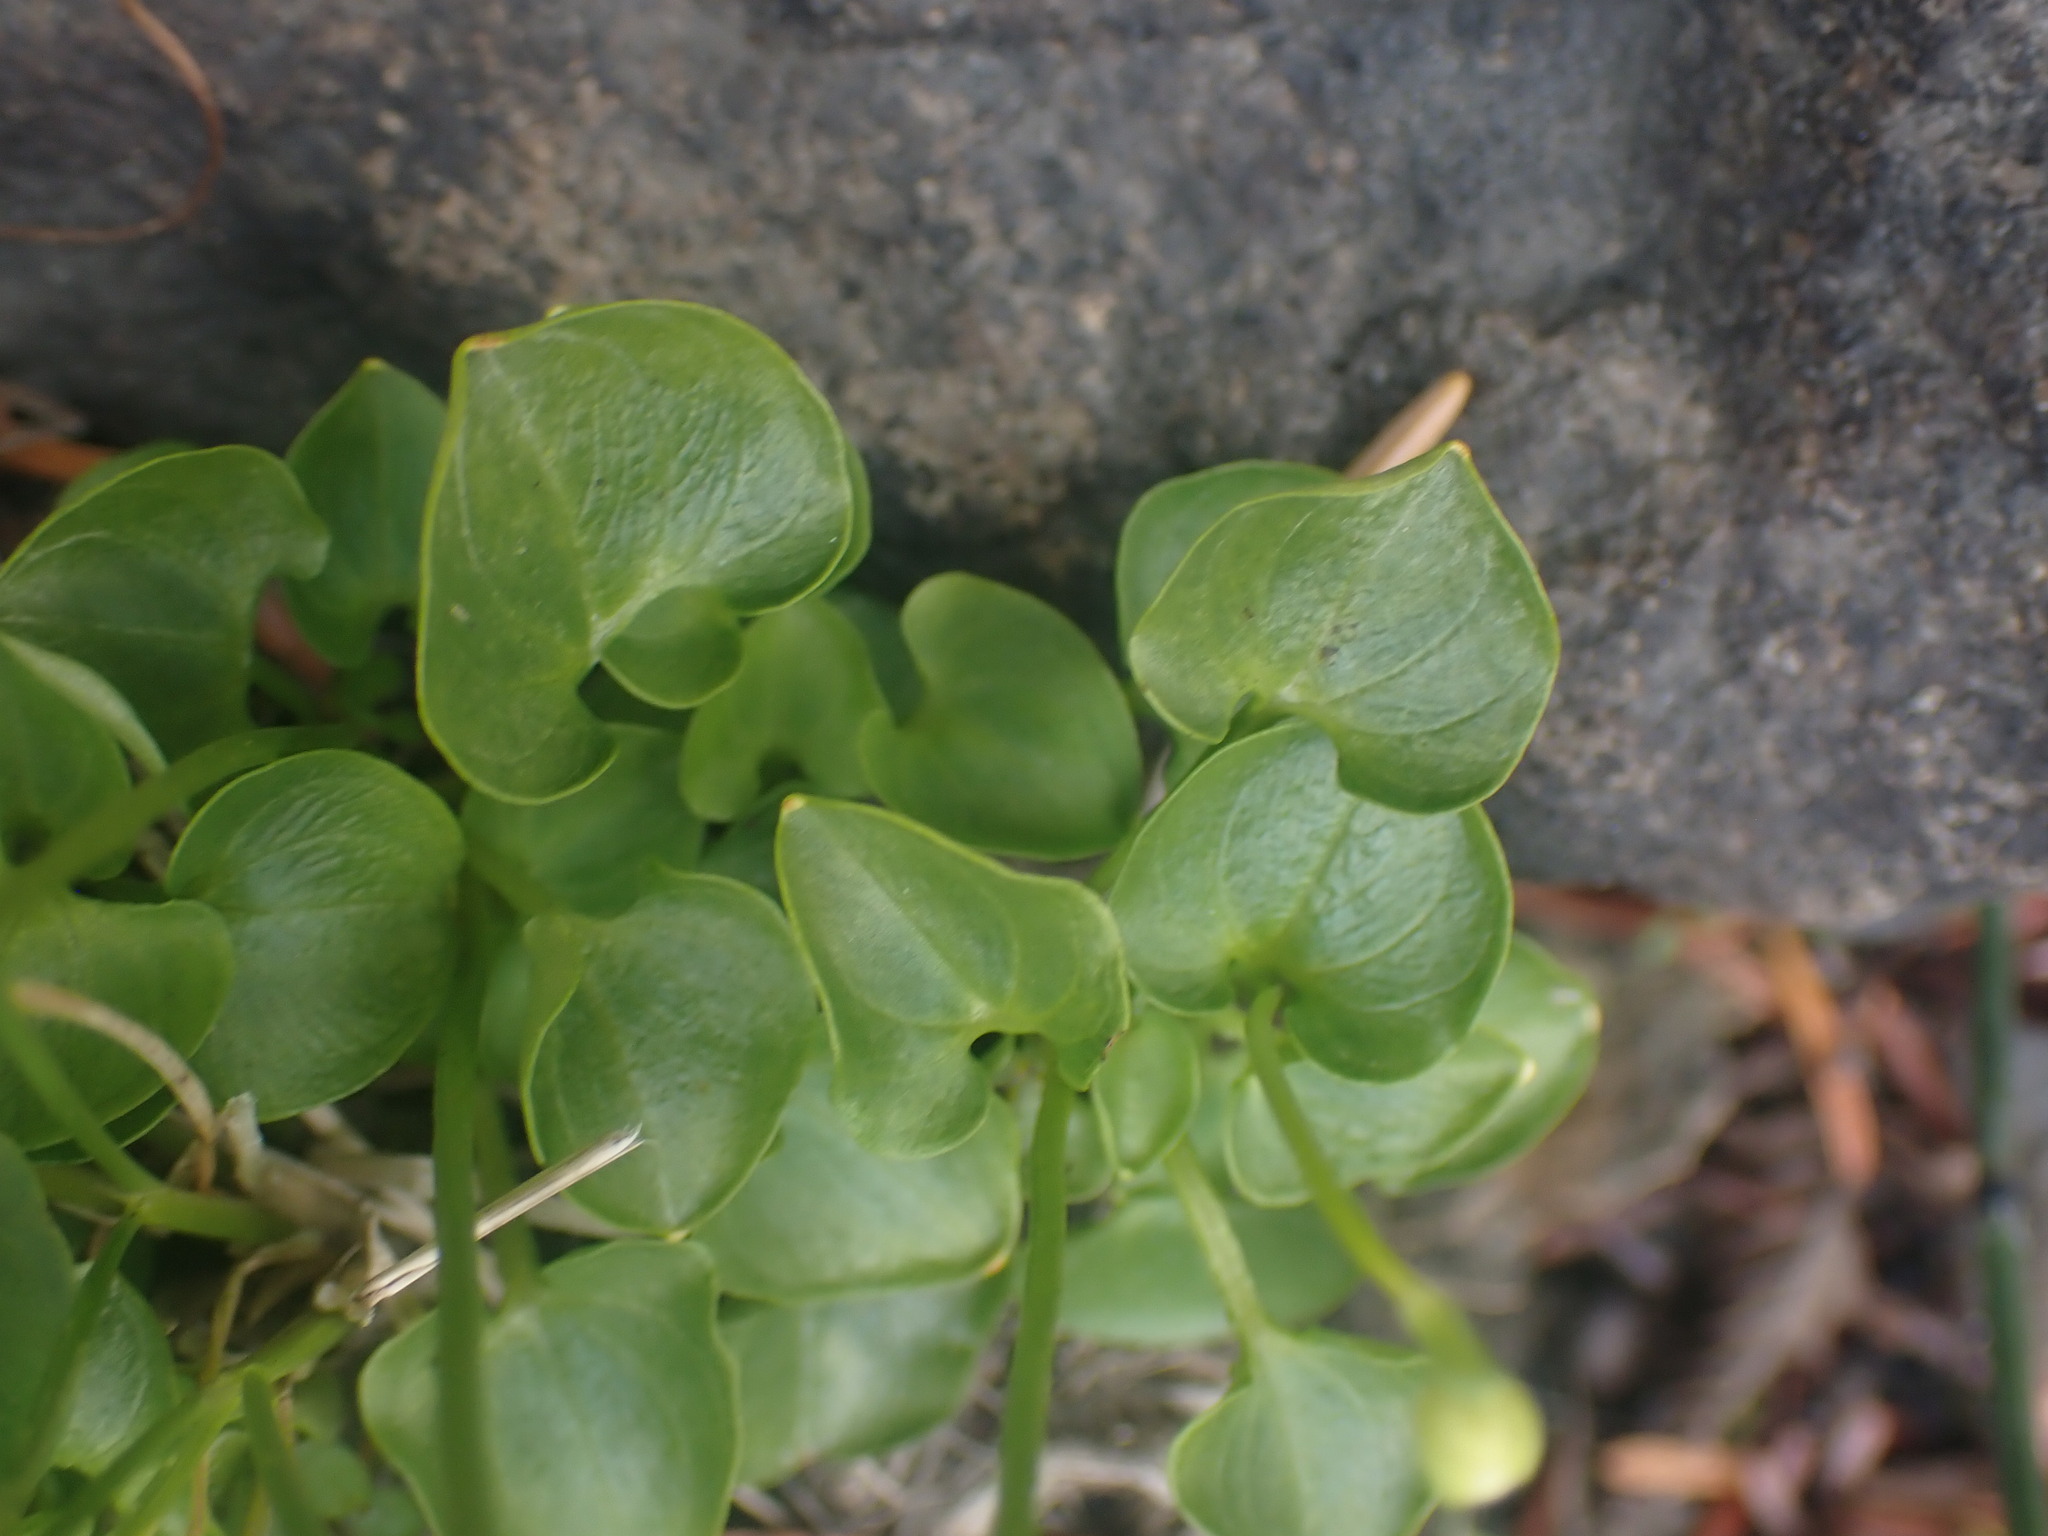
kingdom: Plantae
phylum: Tracheophyta
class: Magnoliopsida
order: Celastrales
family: Parnassiaceae
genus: Parnassia
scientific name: Parnassia fimbriata
